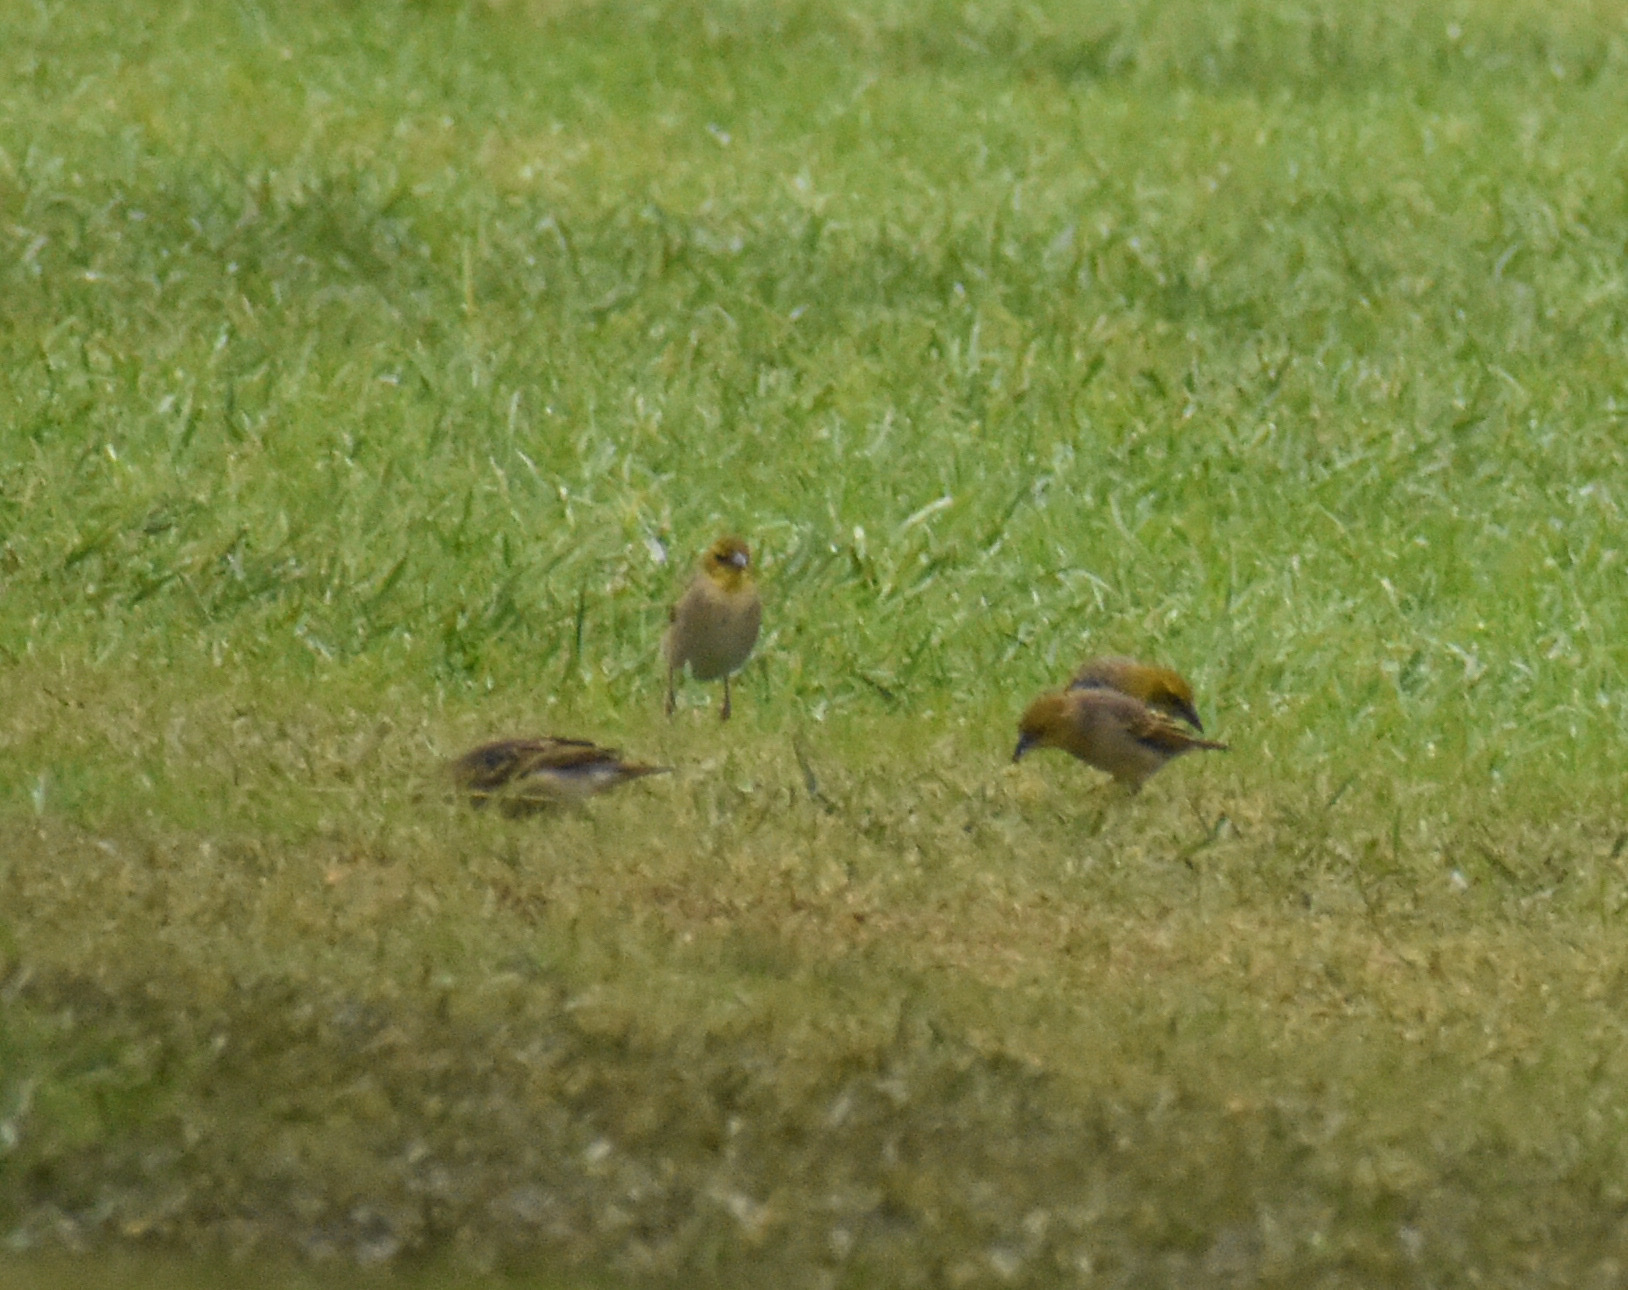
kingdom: Animalia
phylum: Chordata
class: Aves
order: Passeriformes
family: Ploceidae
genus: Ploceus
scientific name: Ploceus cucullatus
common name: Village weaver
